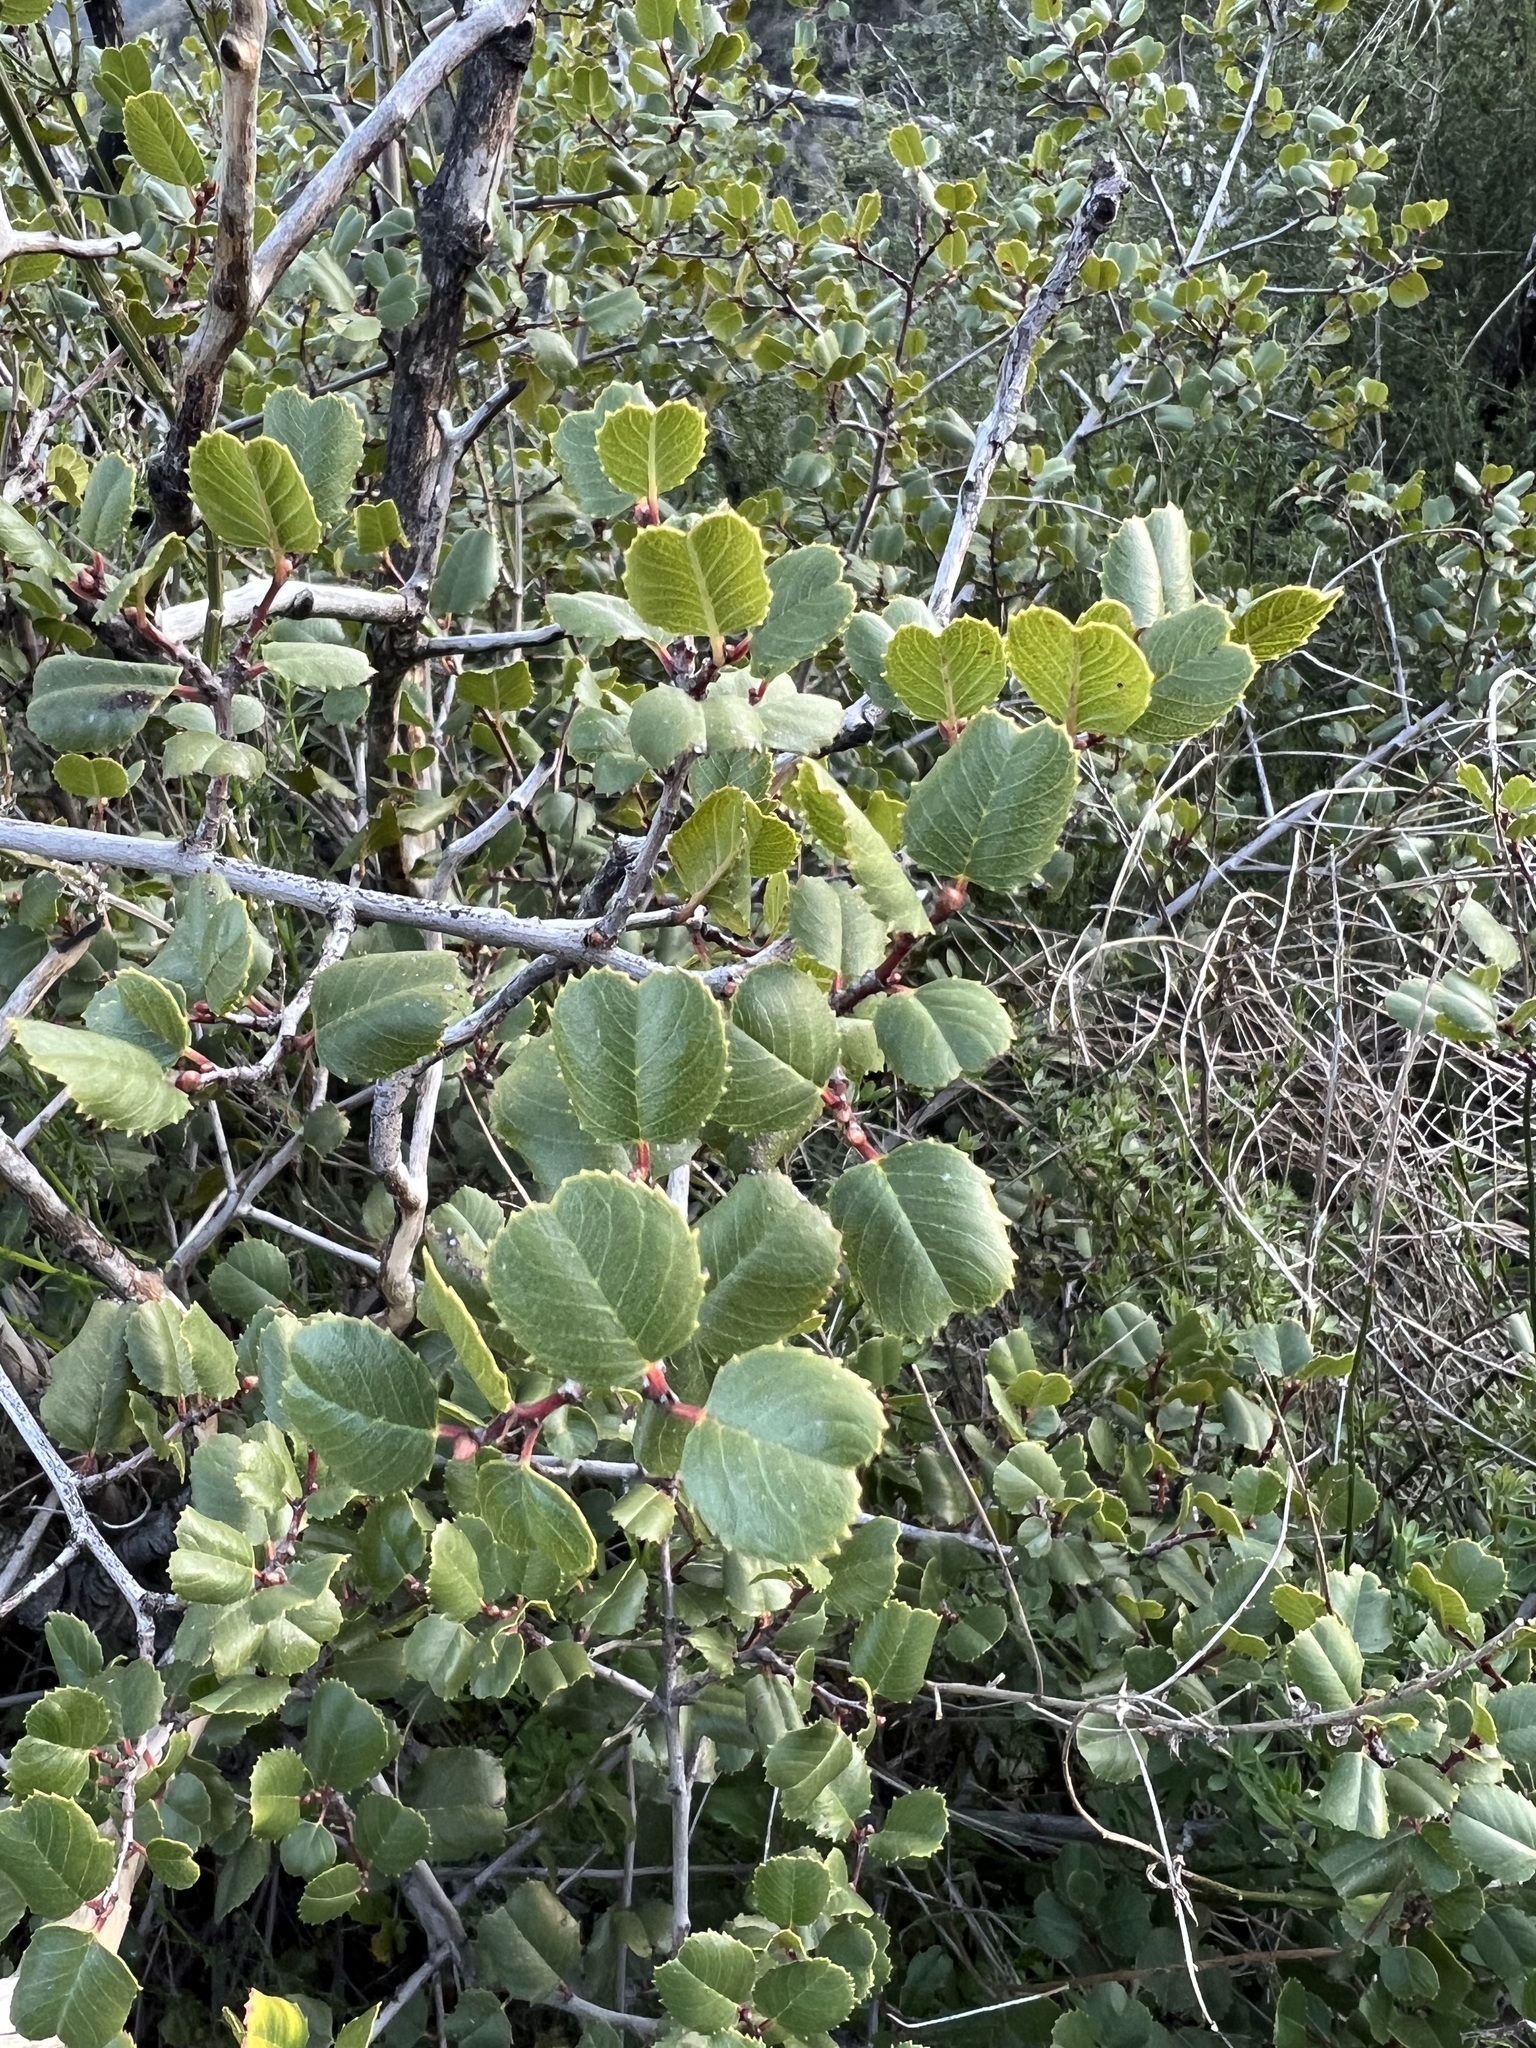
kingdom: Plantae
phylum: Tracheophyta
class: Magnoliopsida
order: Rosales
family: Rhamnaceae
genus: Endotropis
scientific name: Endotropis crocea
